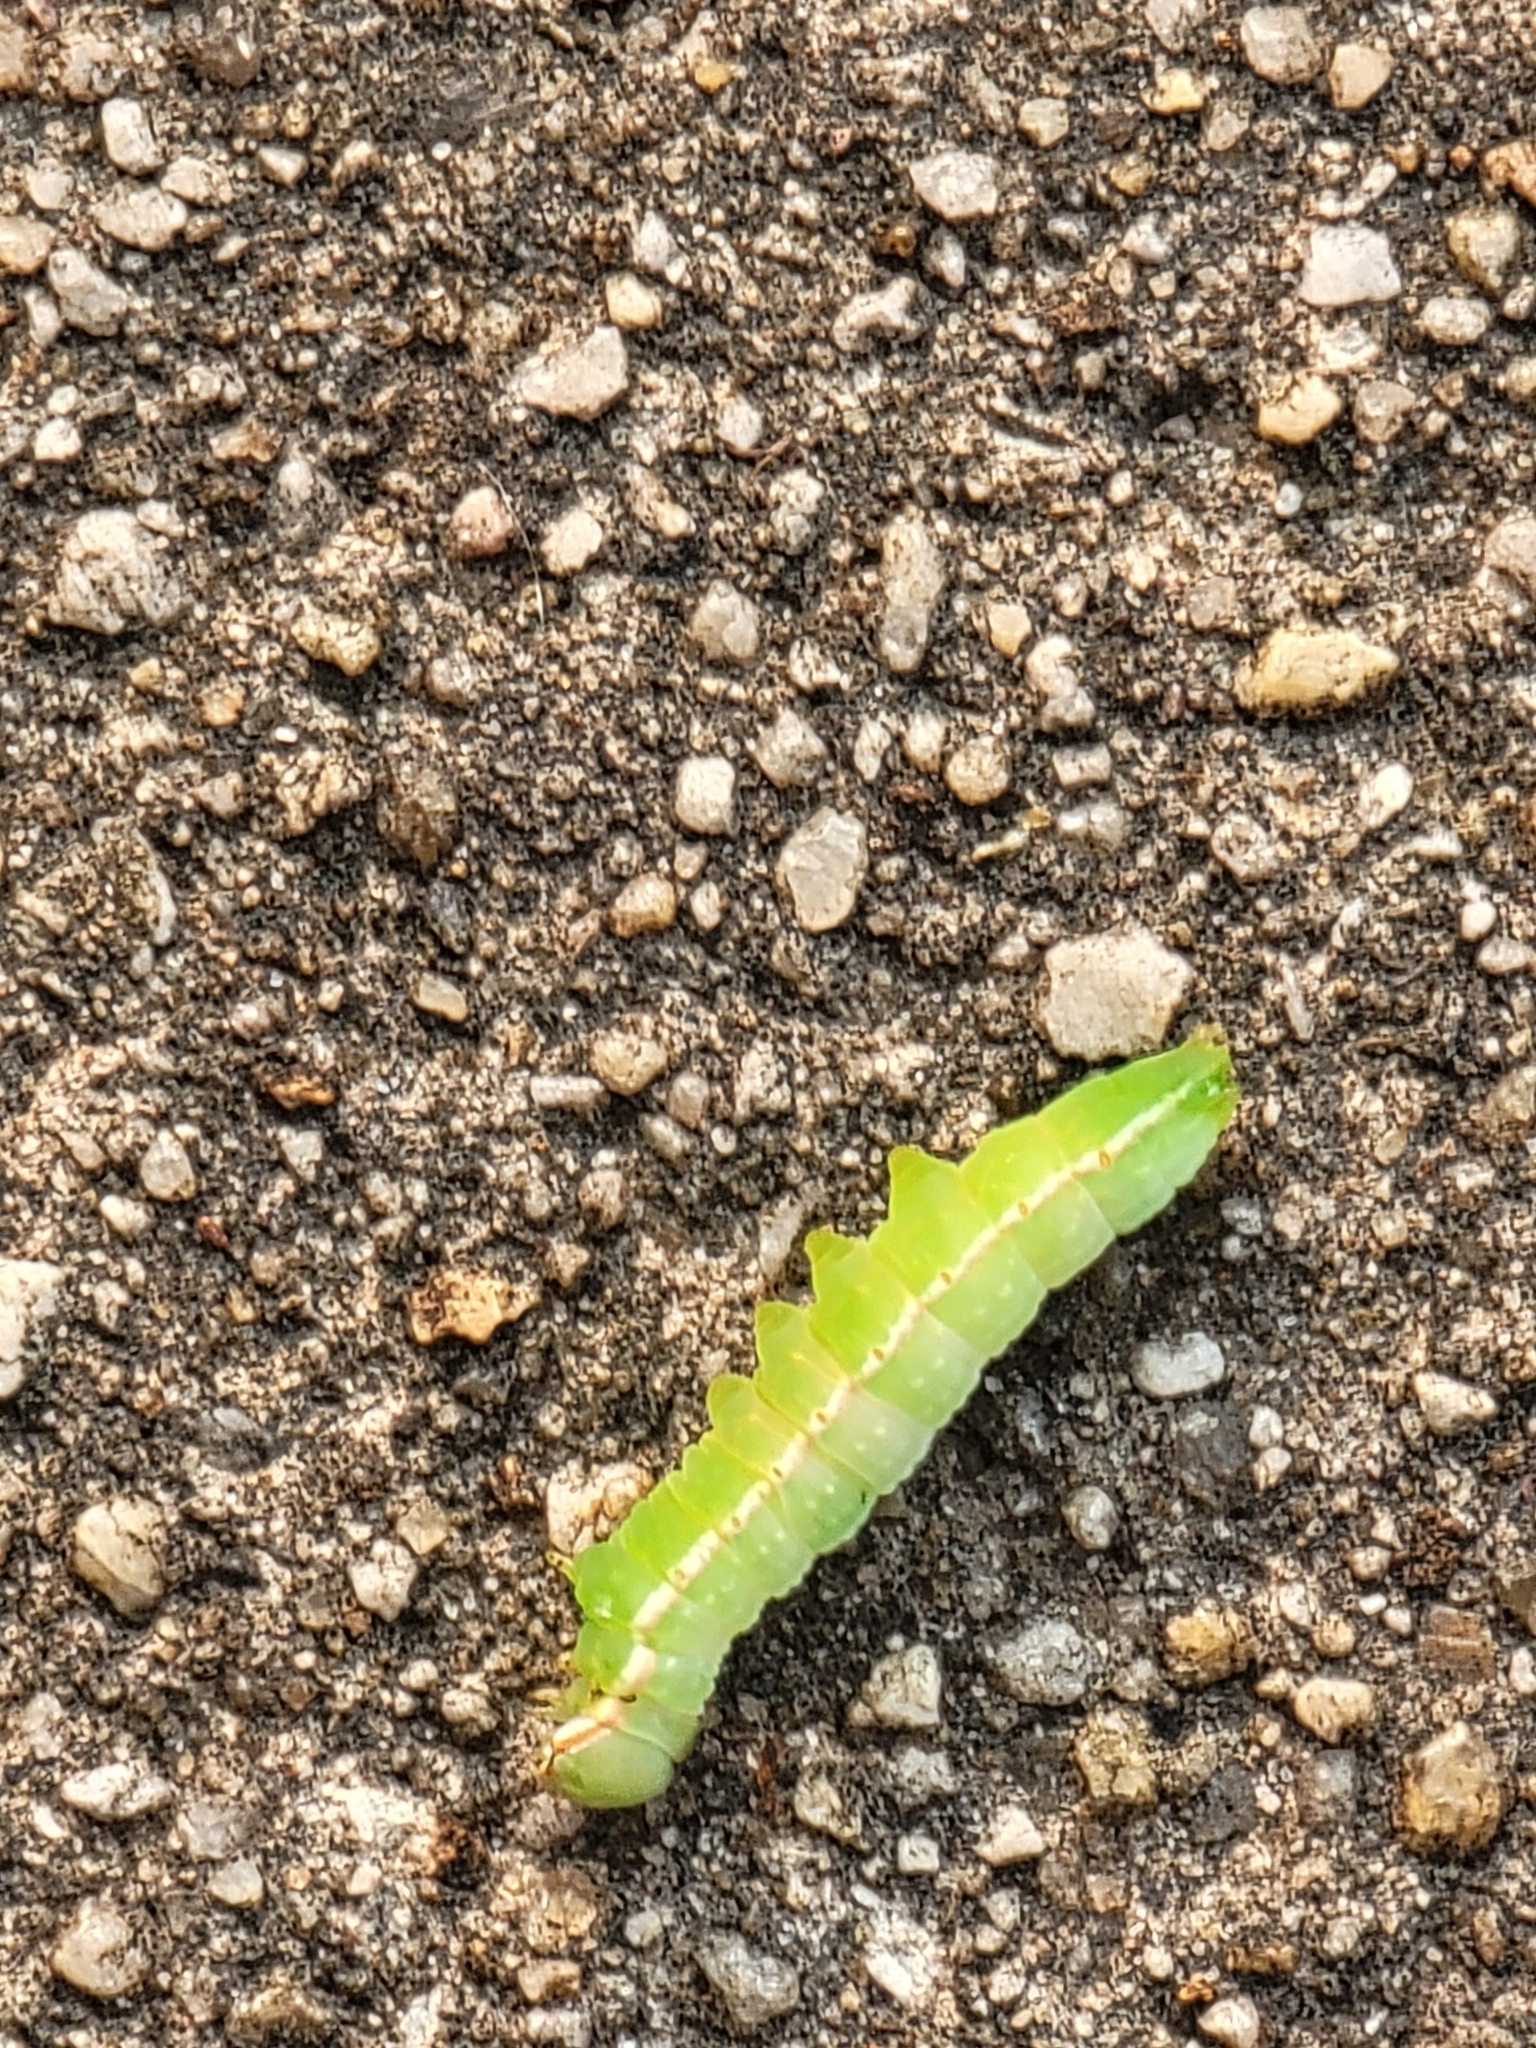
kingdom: Animalia
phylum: Arthropoda
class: Insecta
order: Lepidoptera
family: Notodontidae
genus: Peridea
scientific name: Peridea angulosa
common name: Angulose prominent
